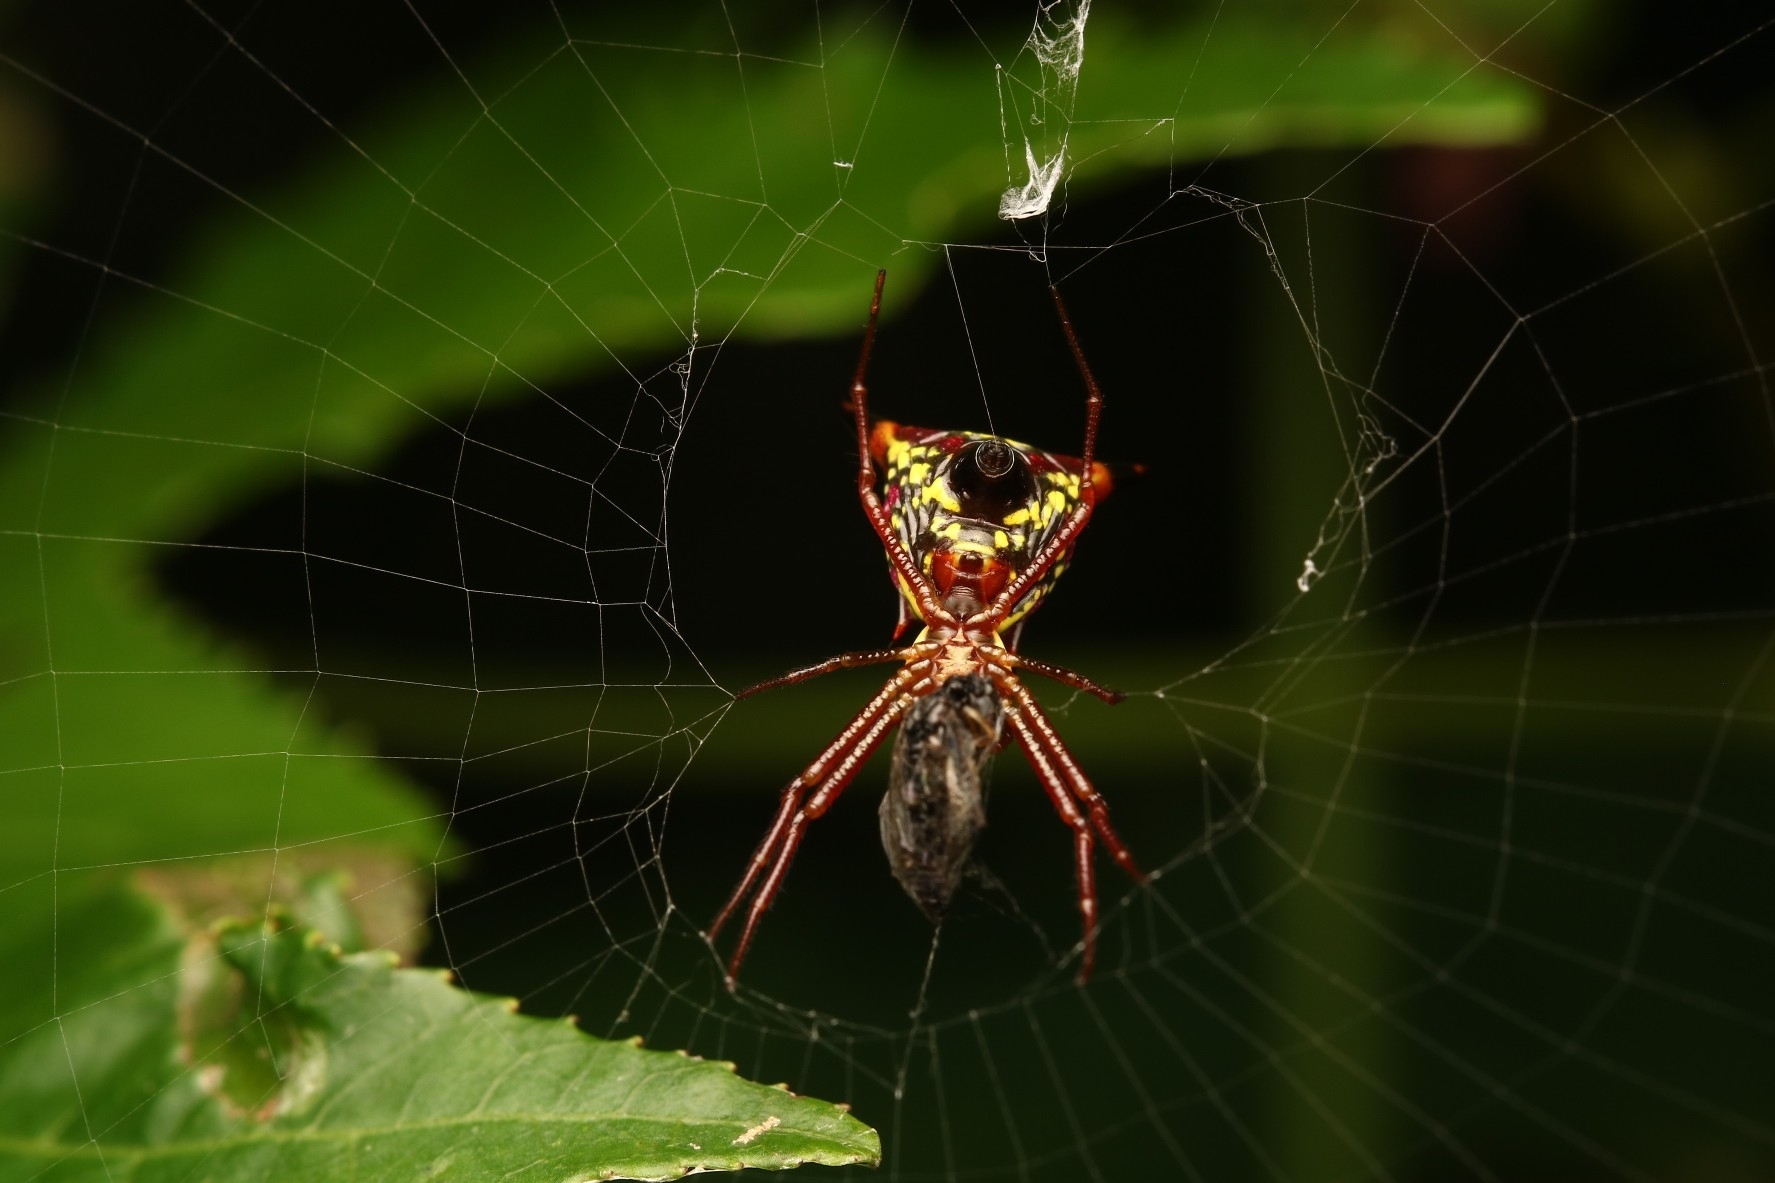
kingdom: Animalia
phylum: Arthropoda
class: Arachnida
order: Araneae
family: Araneidae
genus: Micrathena
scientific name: Micrathena sagittata
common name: Orb weavers
